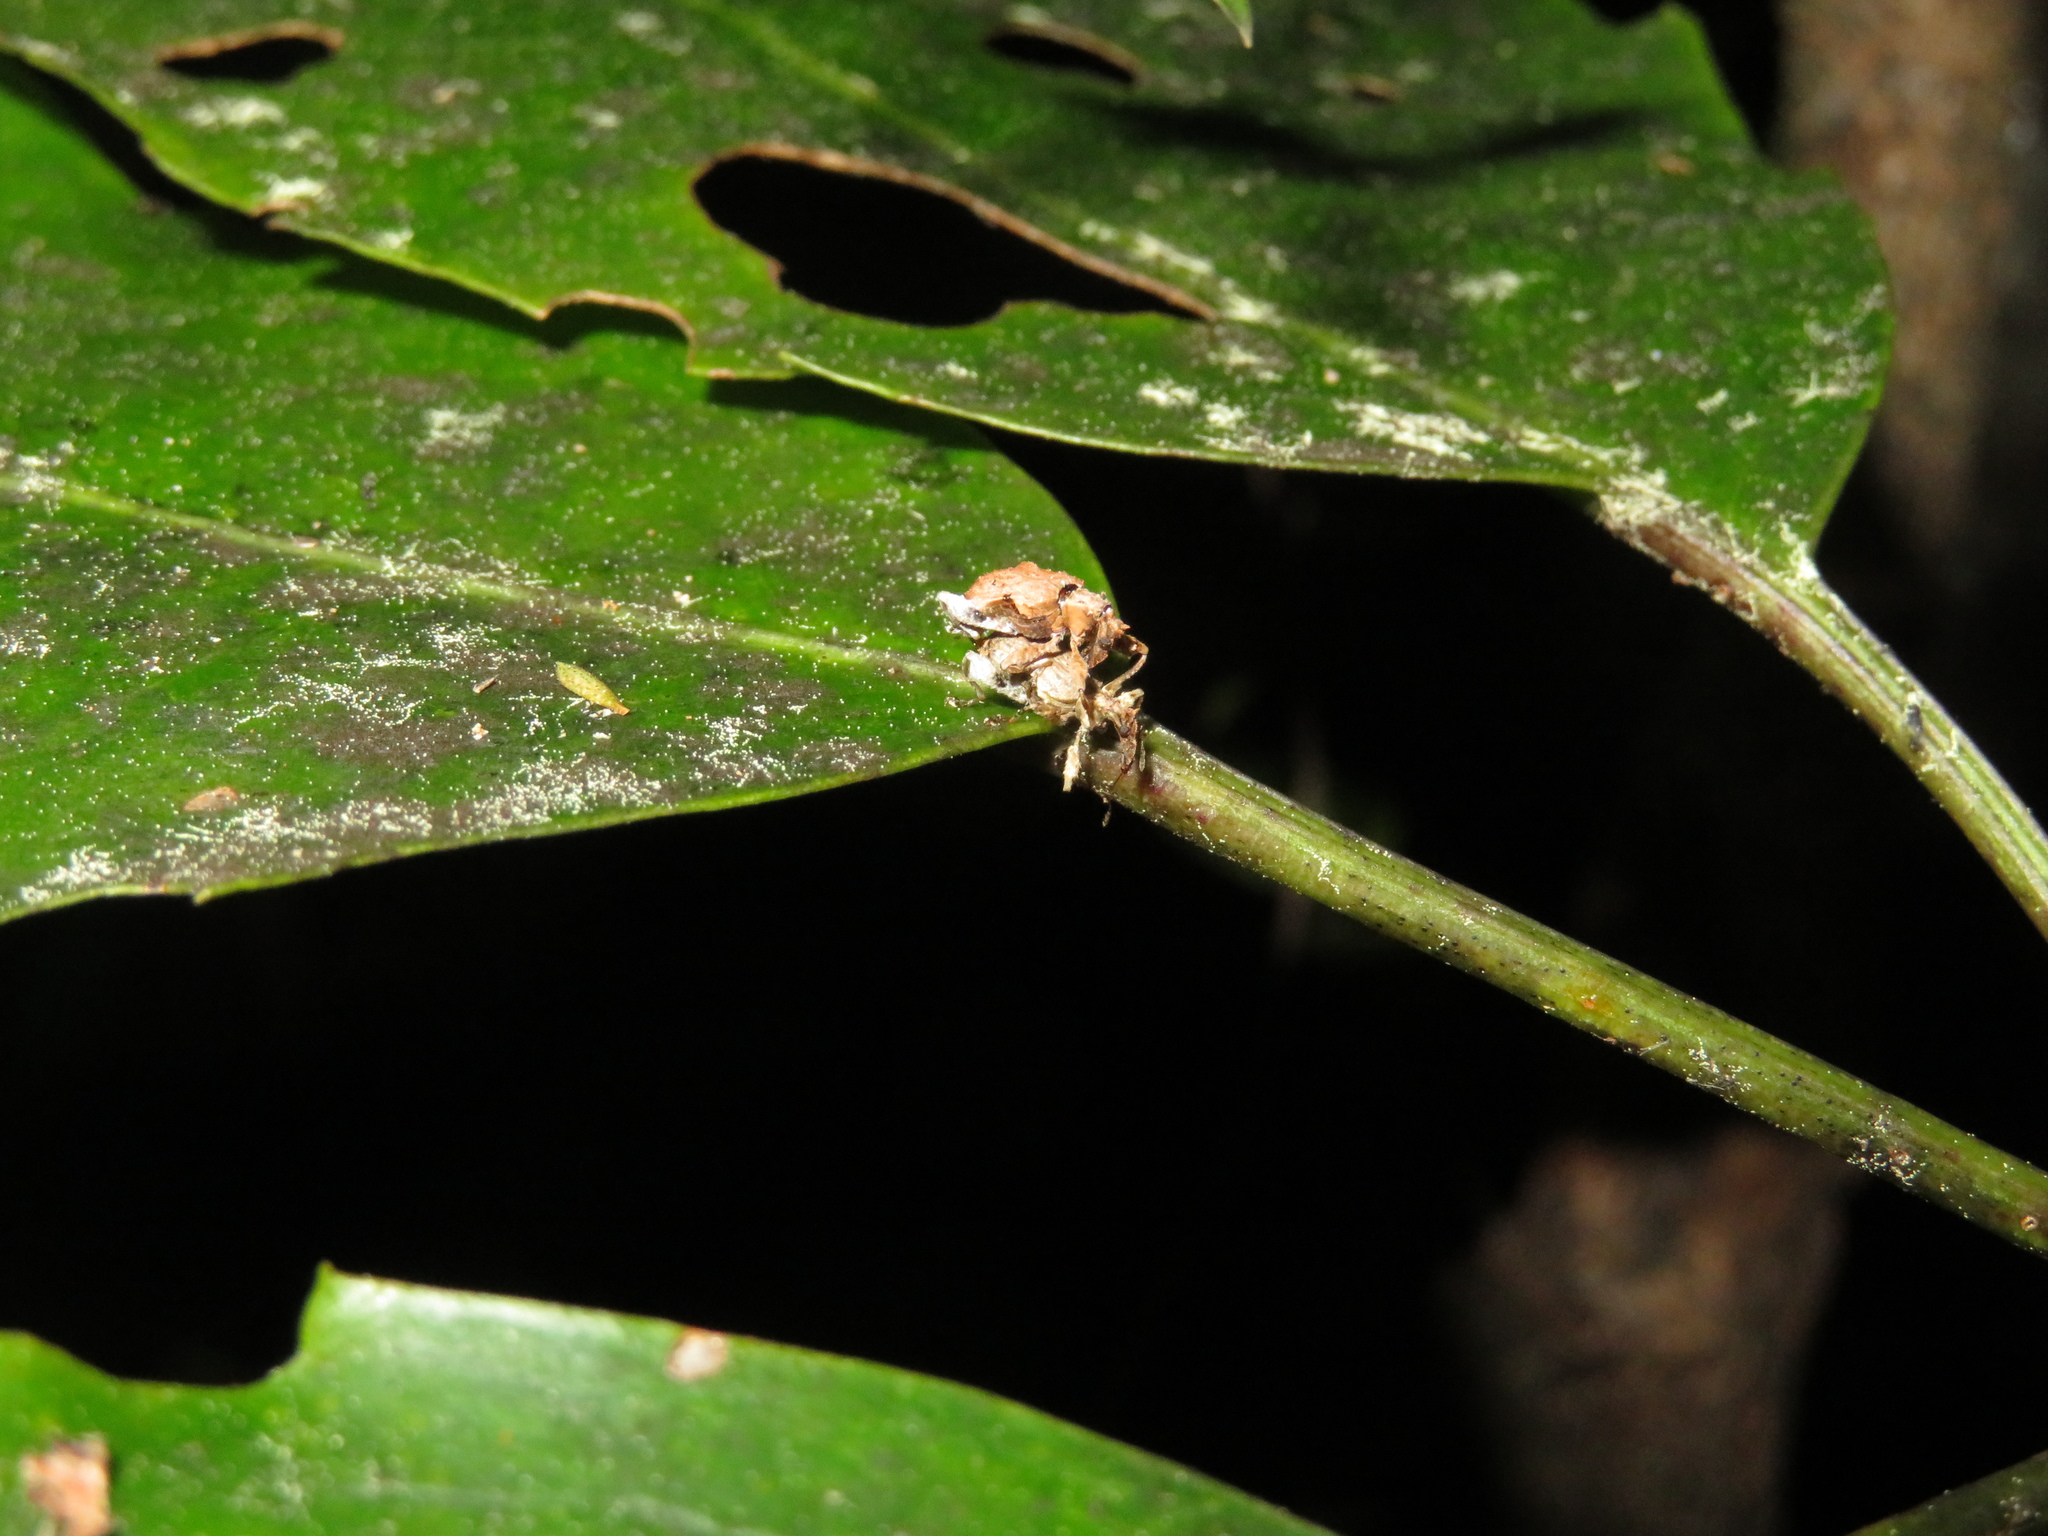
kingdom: Animalia
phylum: Arthropoda
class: Insecta
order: Coleoptera
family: Curculionidae
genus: Stephanorhynchus
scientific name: Stephanorhynchus curvipes
